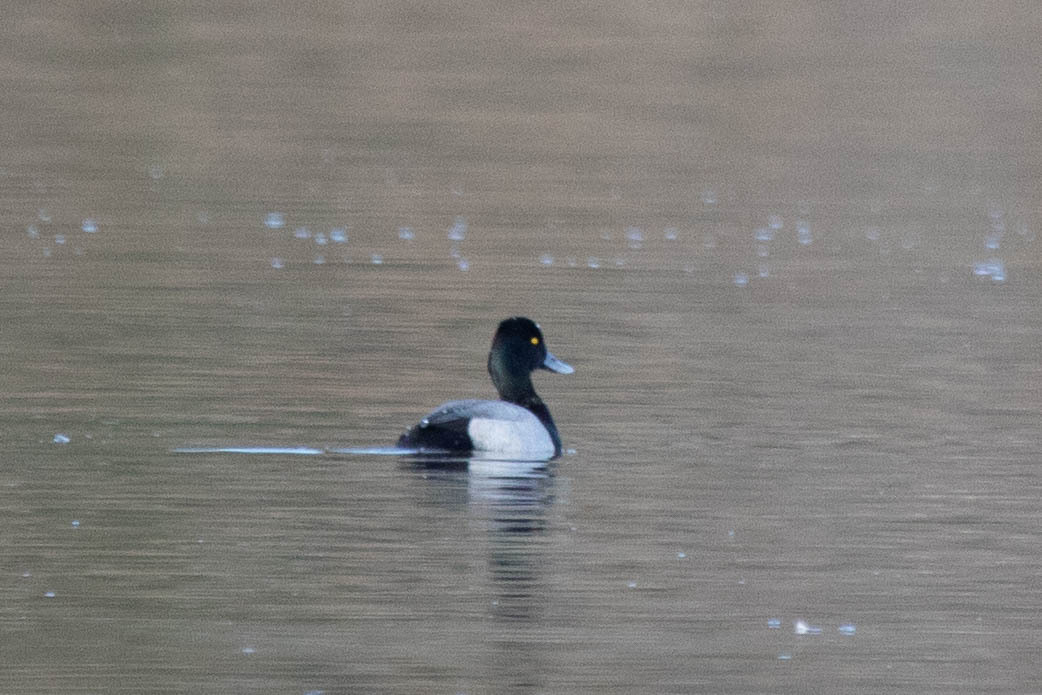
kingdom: Animalia
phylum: Chordata
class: Aves
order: Anseriformes
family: Anatidae
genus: Aythya
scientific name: Aythya affinis
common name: Lesser scaup
